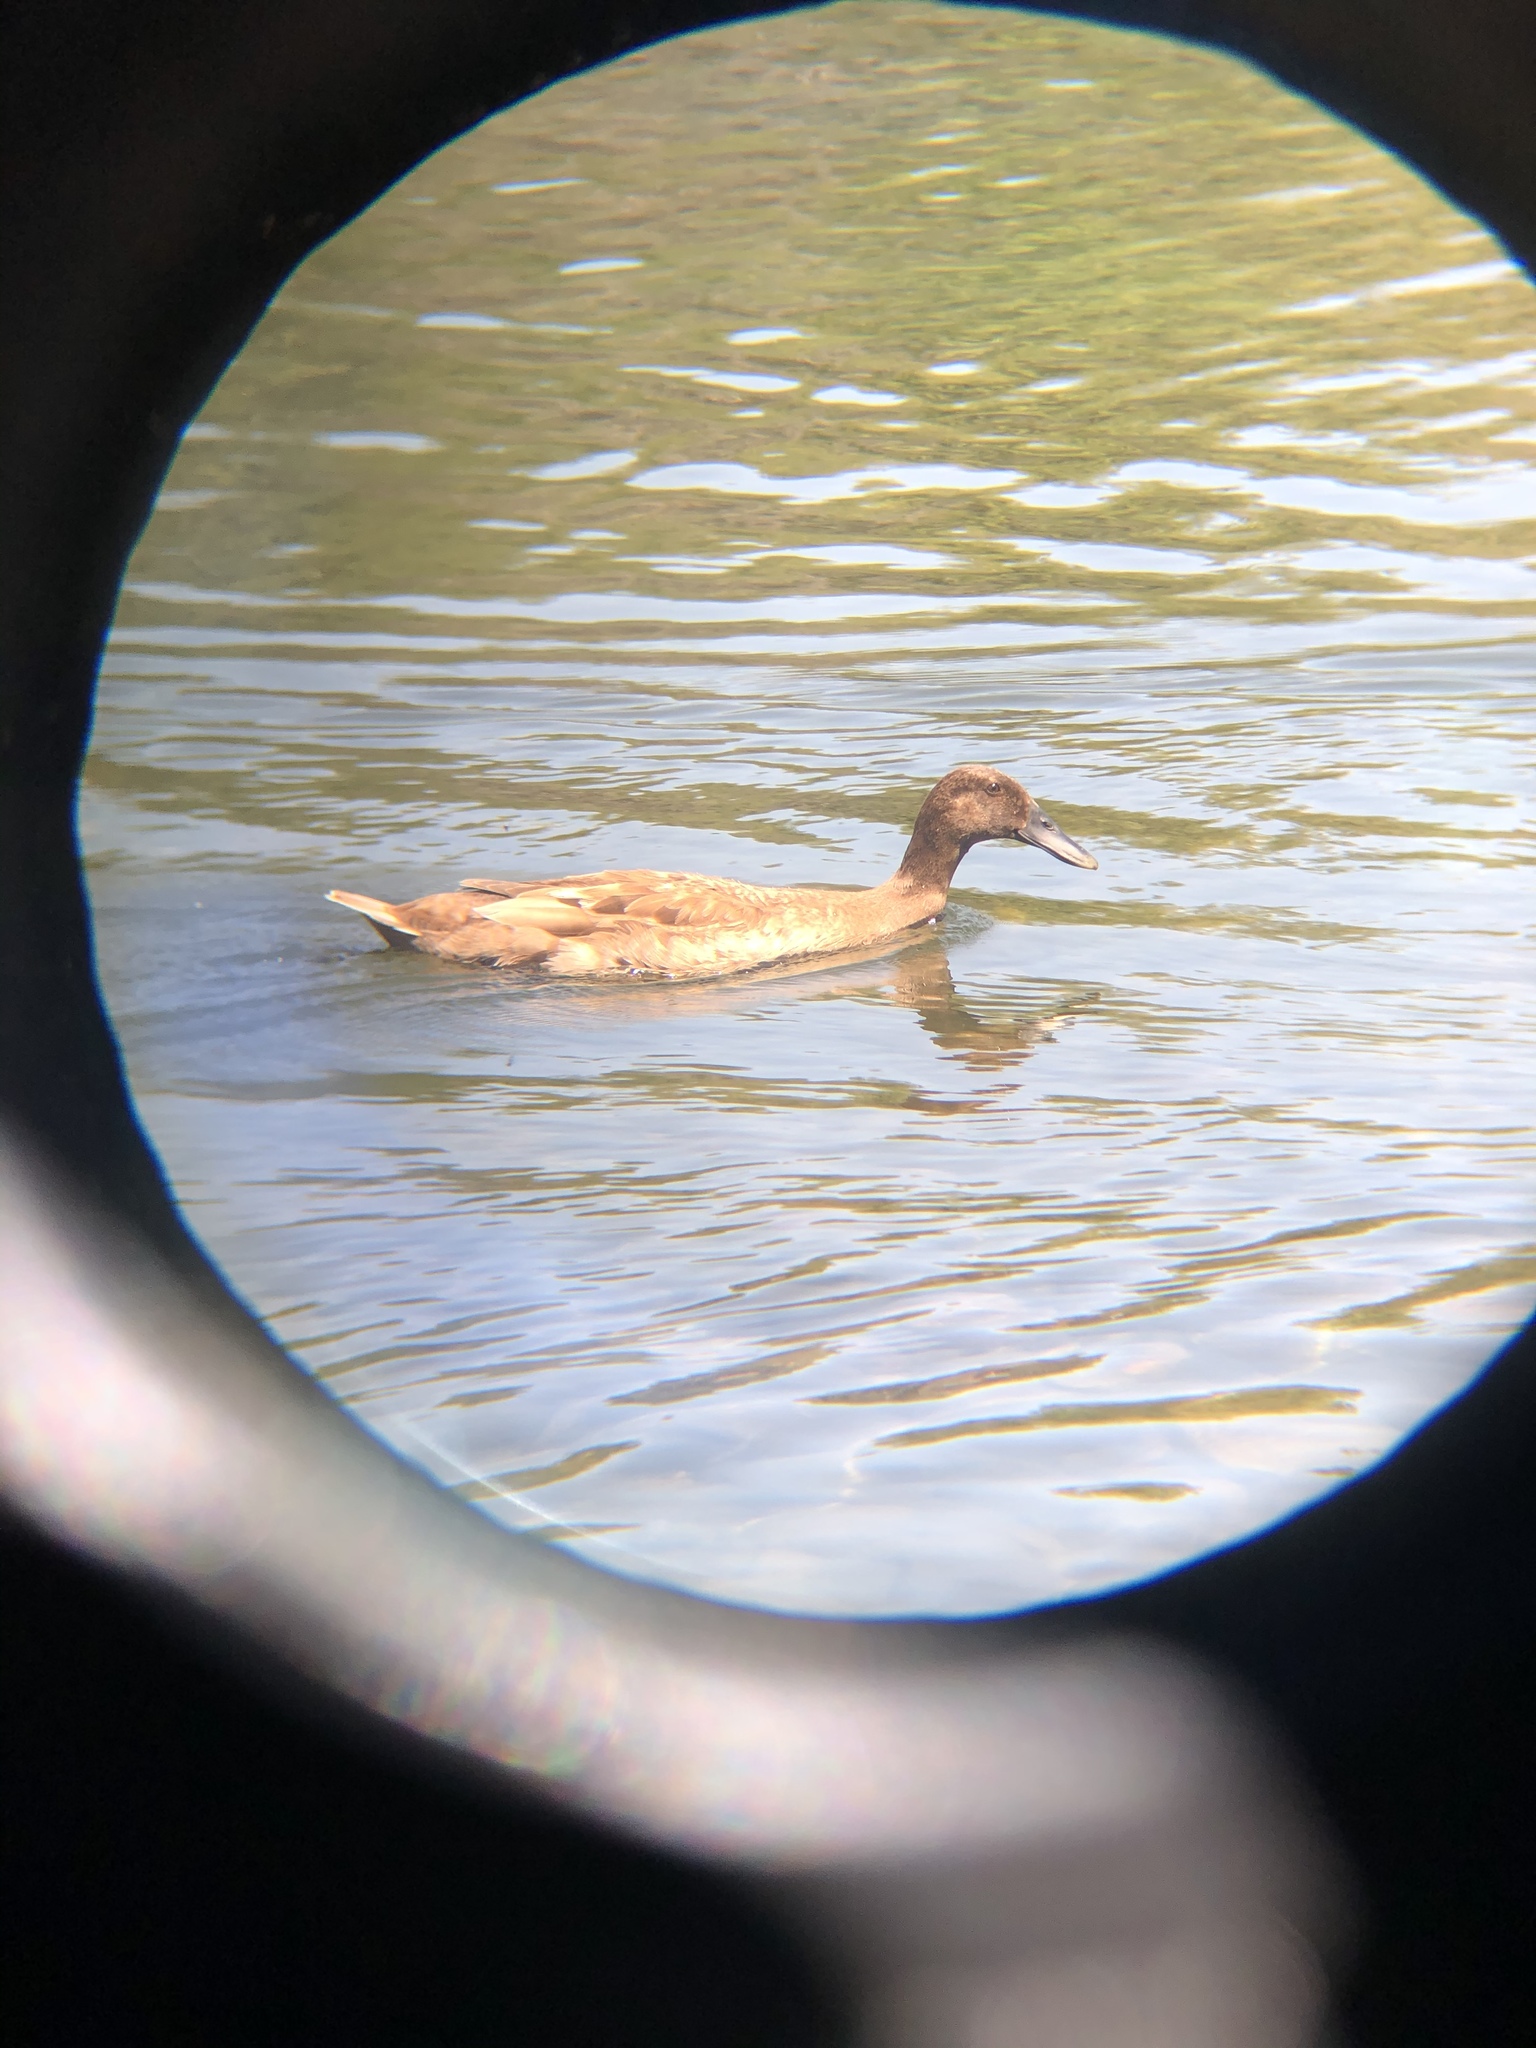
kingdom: Animalia
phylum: Chordata
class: Aves
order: Anseriformes
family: Anatidae
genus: Anas
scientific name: Anas platyrhynchos
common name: Mallard
